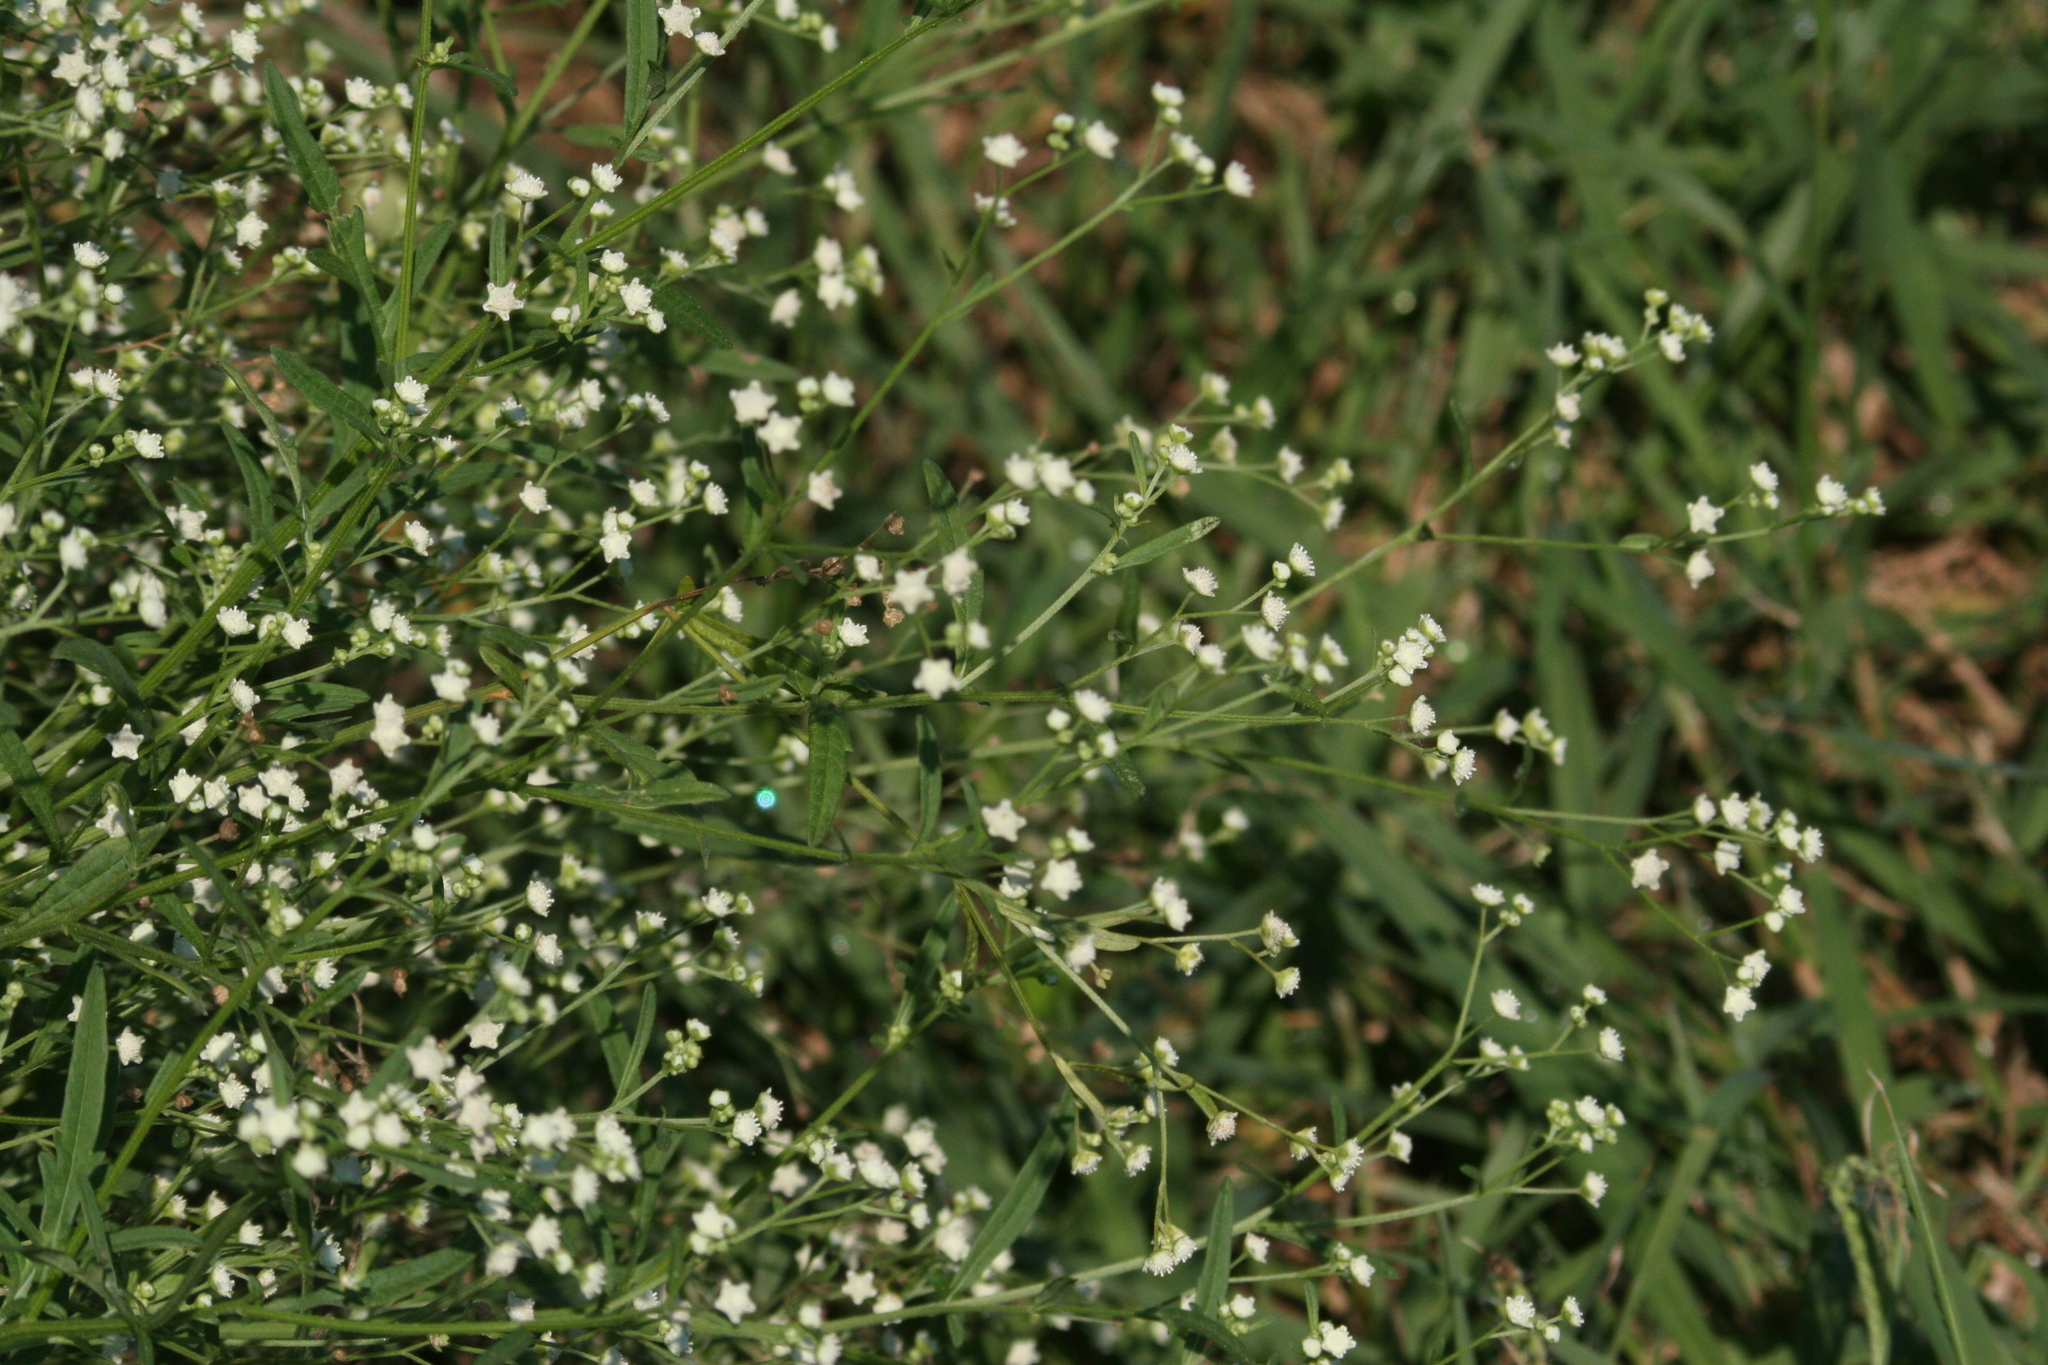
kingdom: Plantae
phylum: Tracheophyta
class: Magnoliopsida
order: Asterales
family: Asteraceae
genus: Parthenium
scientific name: Parthenium hysterophorus
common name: Santa maria feverfew
